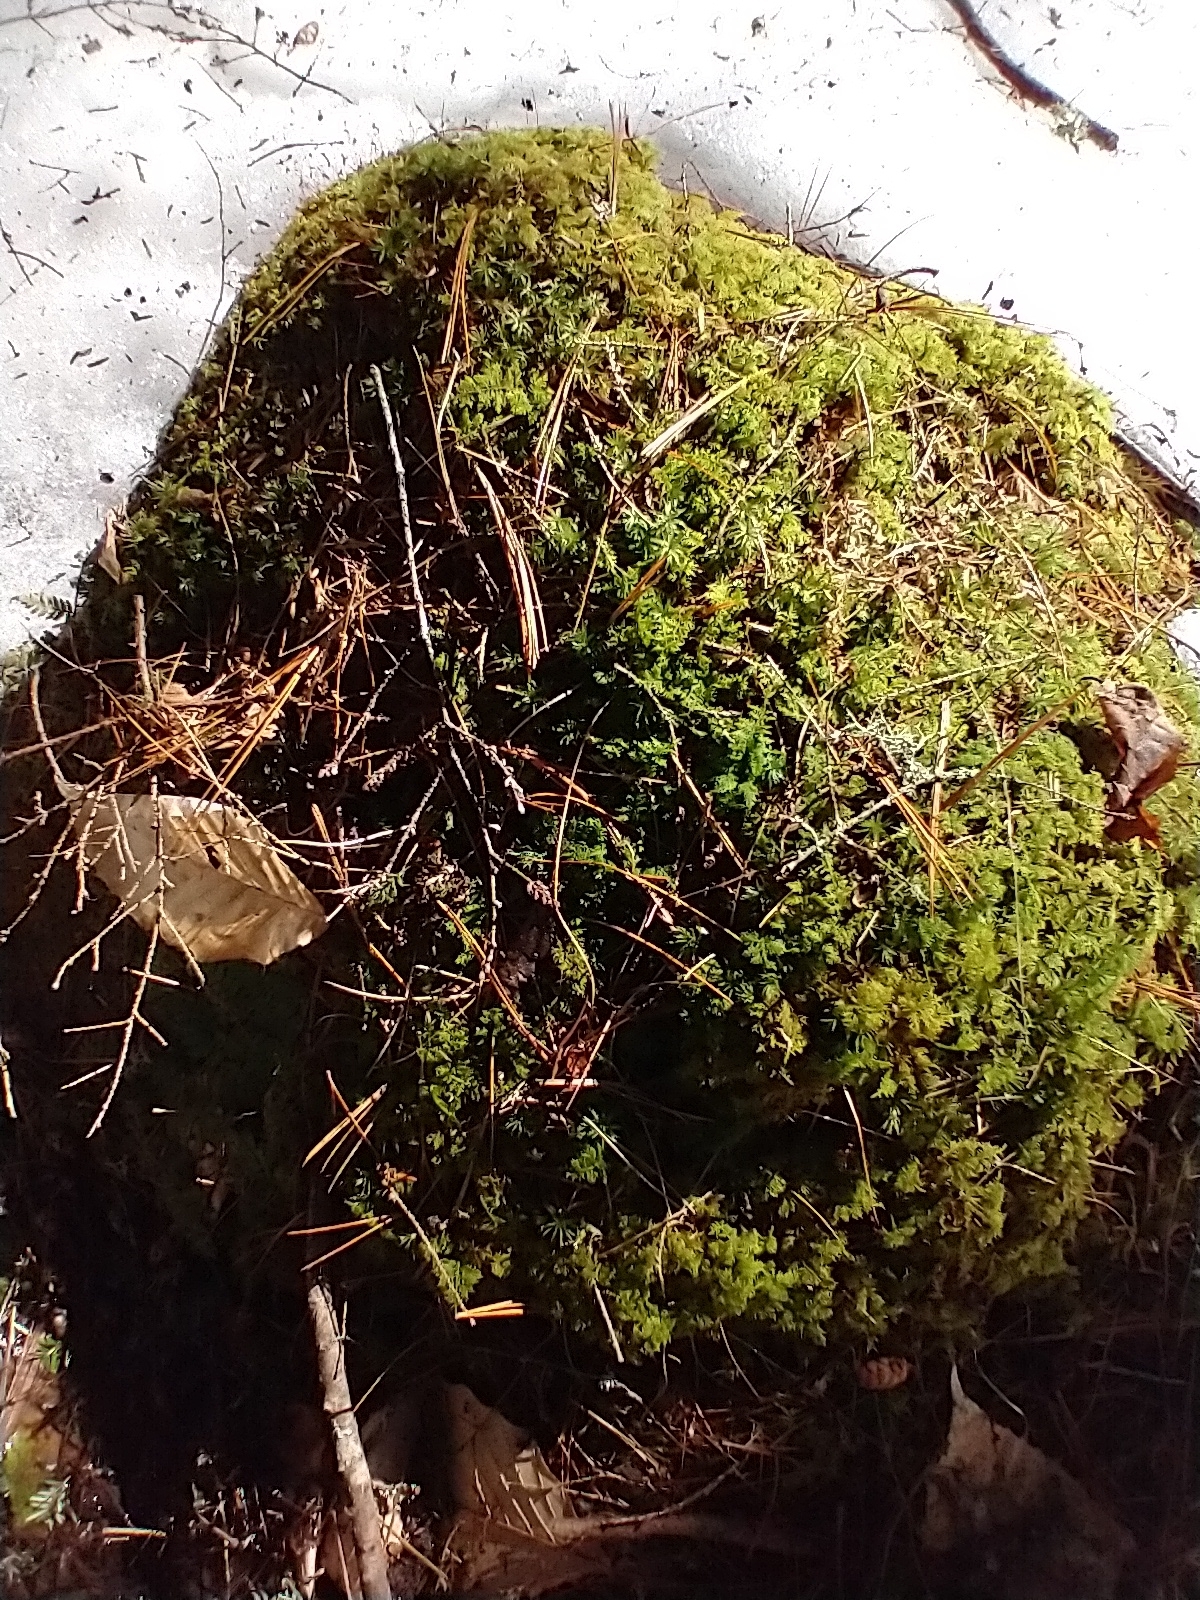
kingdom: Plantae
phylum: Bryophyta
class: Bryopsida
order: Hypnales
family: Hylocomiaceae
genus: Hylocomium
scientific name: Hylocomium splendens
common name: Stairstep moss
